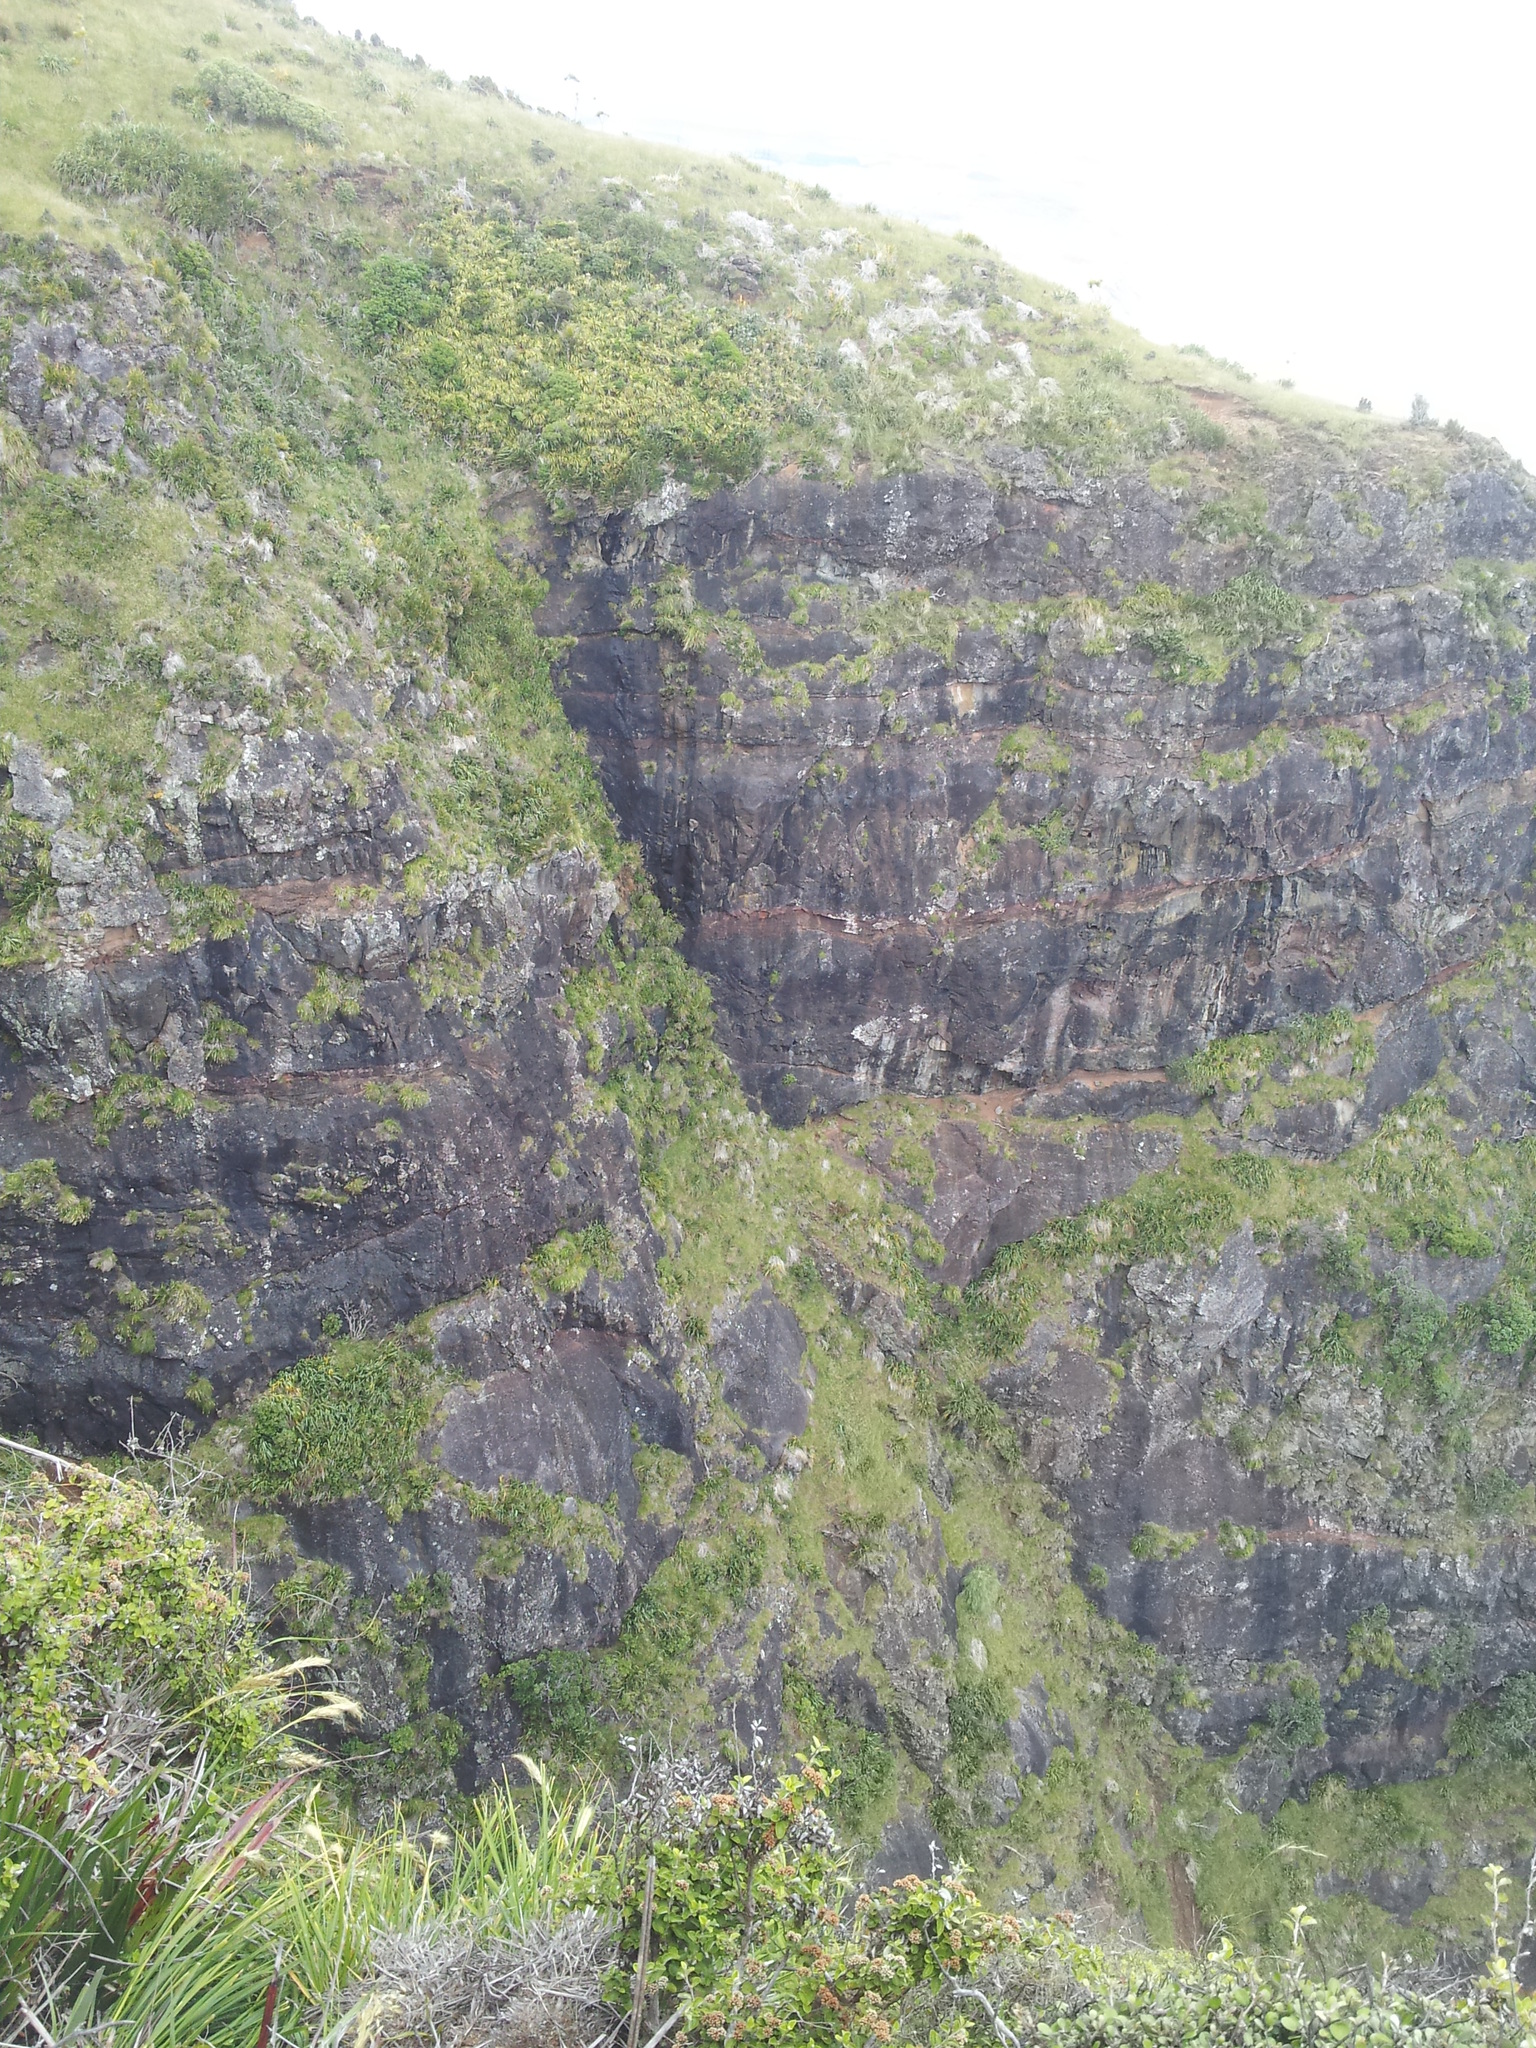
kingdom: Plantae
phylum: Tracheophyta
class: Liliopsida
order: Poales
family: Poaceae
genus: Chionochloa
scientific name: Chionochloa bromoides
